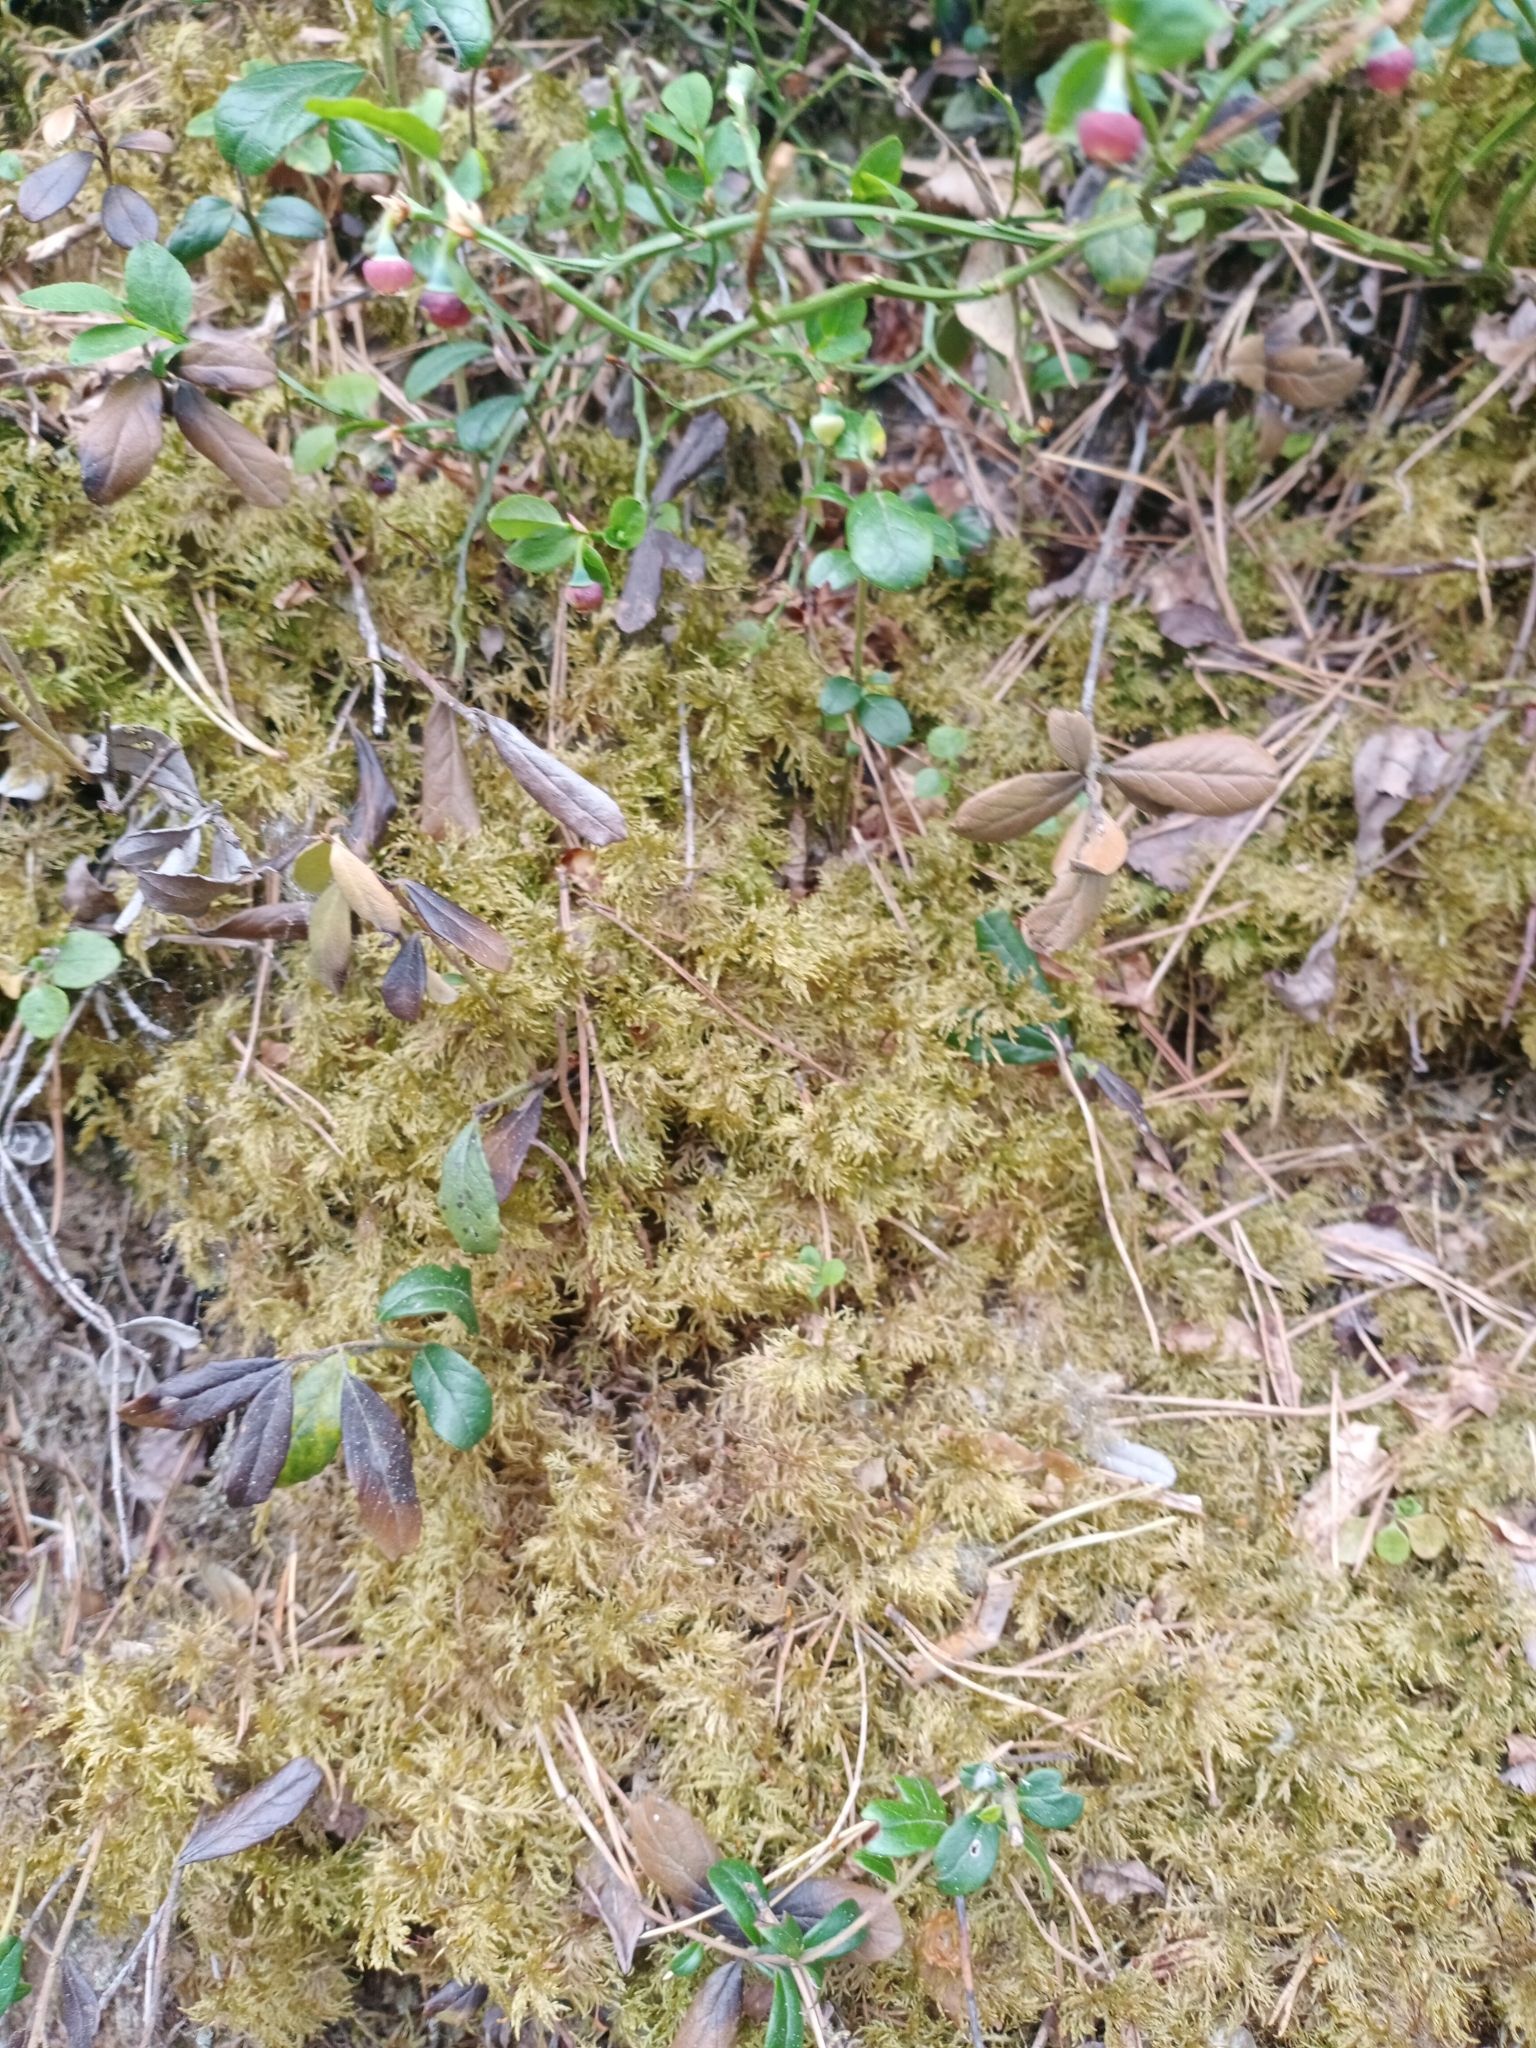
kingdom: Plantae
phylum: Bryophyta
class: Bryopsida
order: Hypnales
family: Hylocomiaceae
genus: Hylocomium
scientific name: Hylocomium splendens
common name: Stairstep moss
